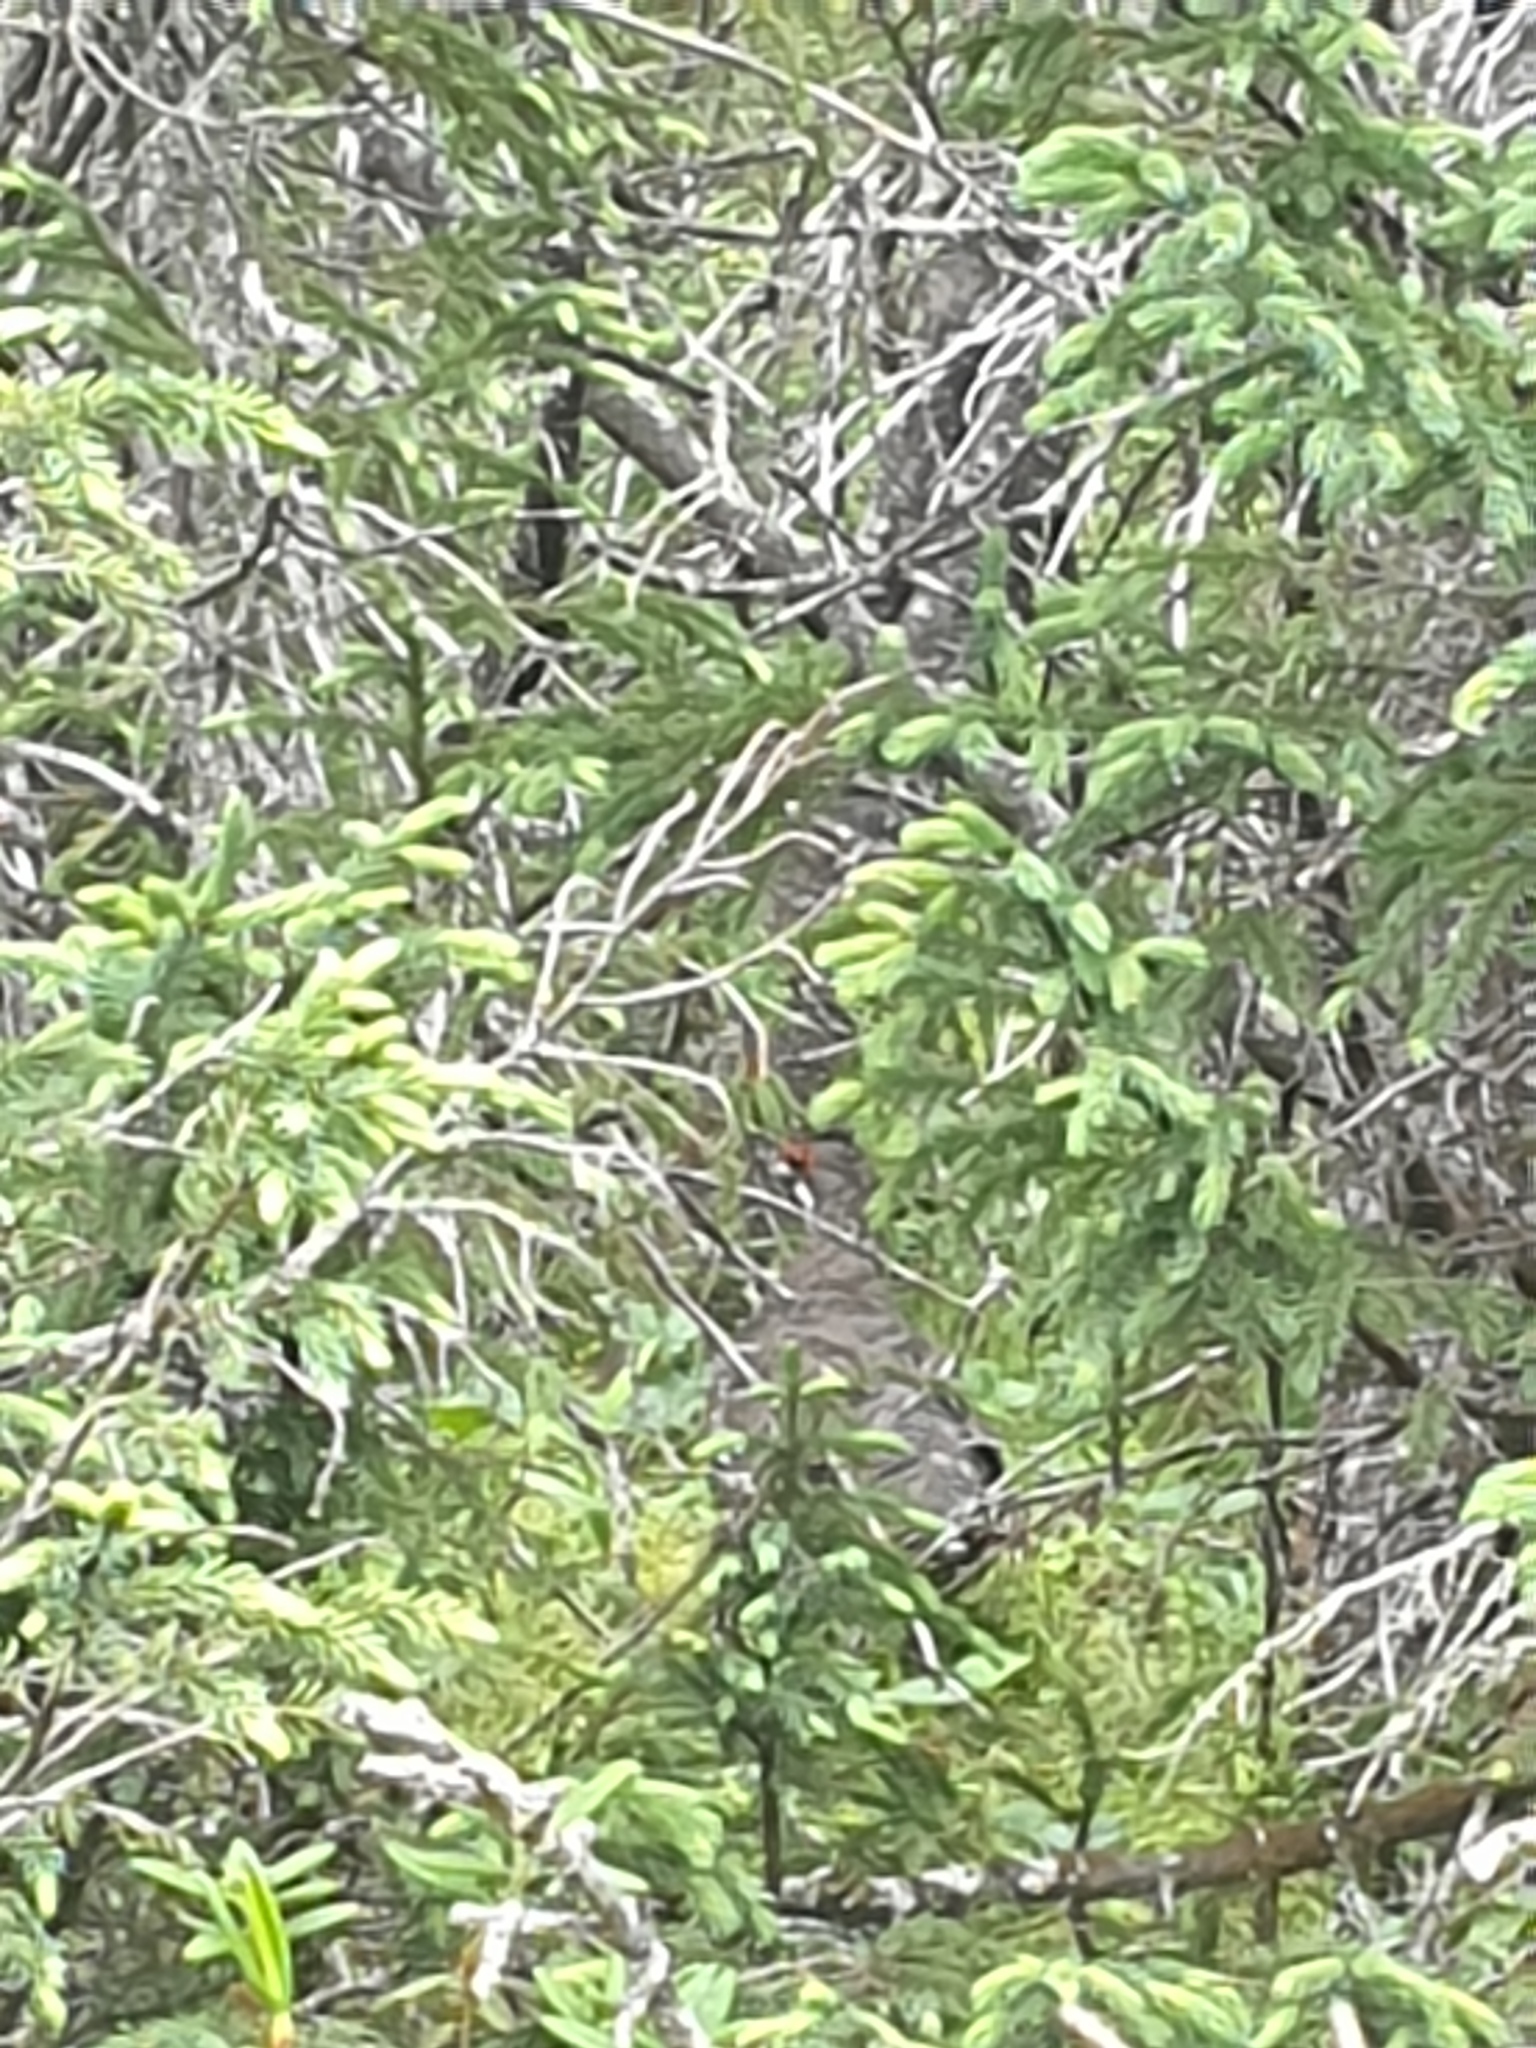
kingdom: Animalia
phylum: Chordata
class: Aves
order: Galliformes
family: Phasianidae
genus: Canachites
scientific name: Canachites canadensis
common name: Spruce grouse
